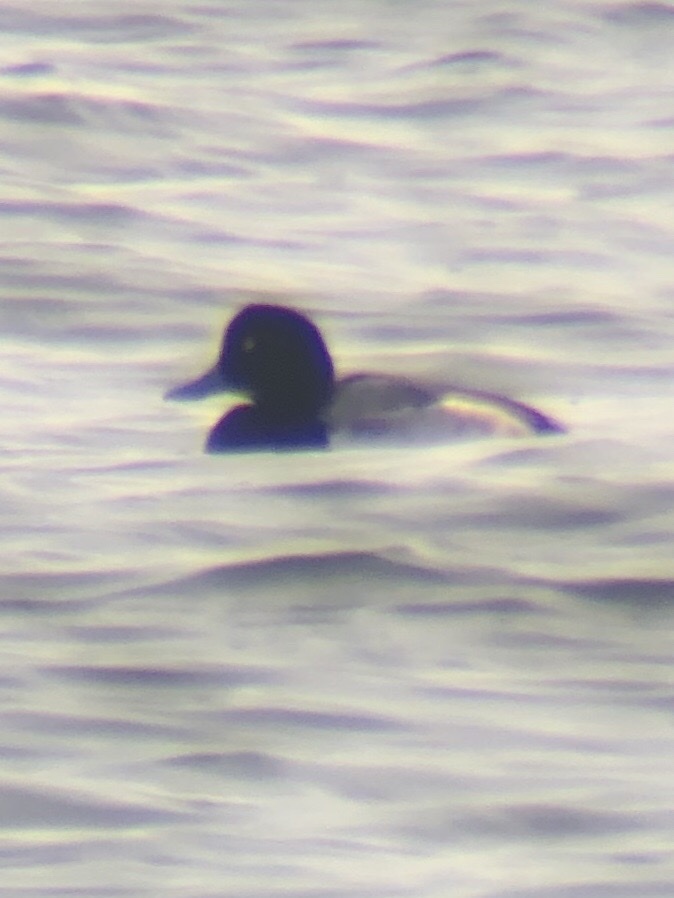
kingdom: Animalia
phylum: Chordata
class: Aves
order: Anseriformes
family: Anatidae
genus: Aythya
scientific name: Aythya marila
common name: Greater scaup
